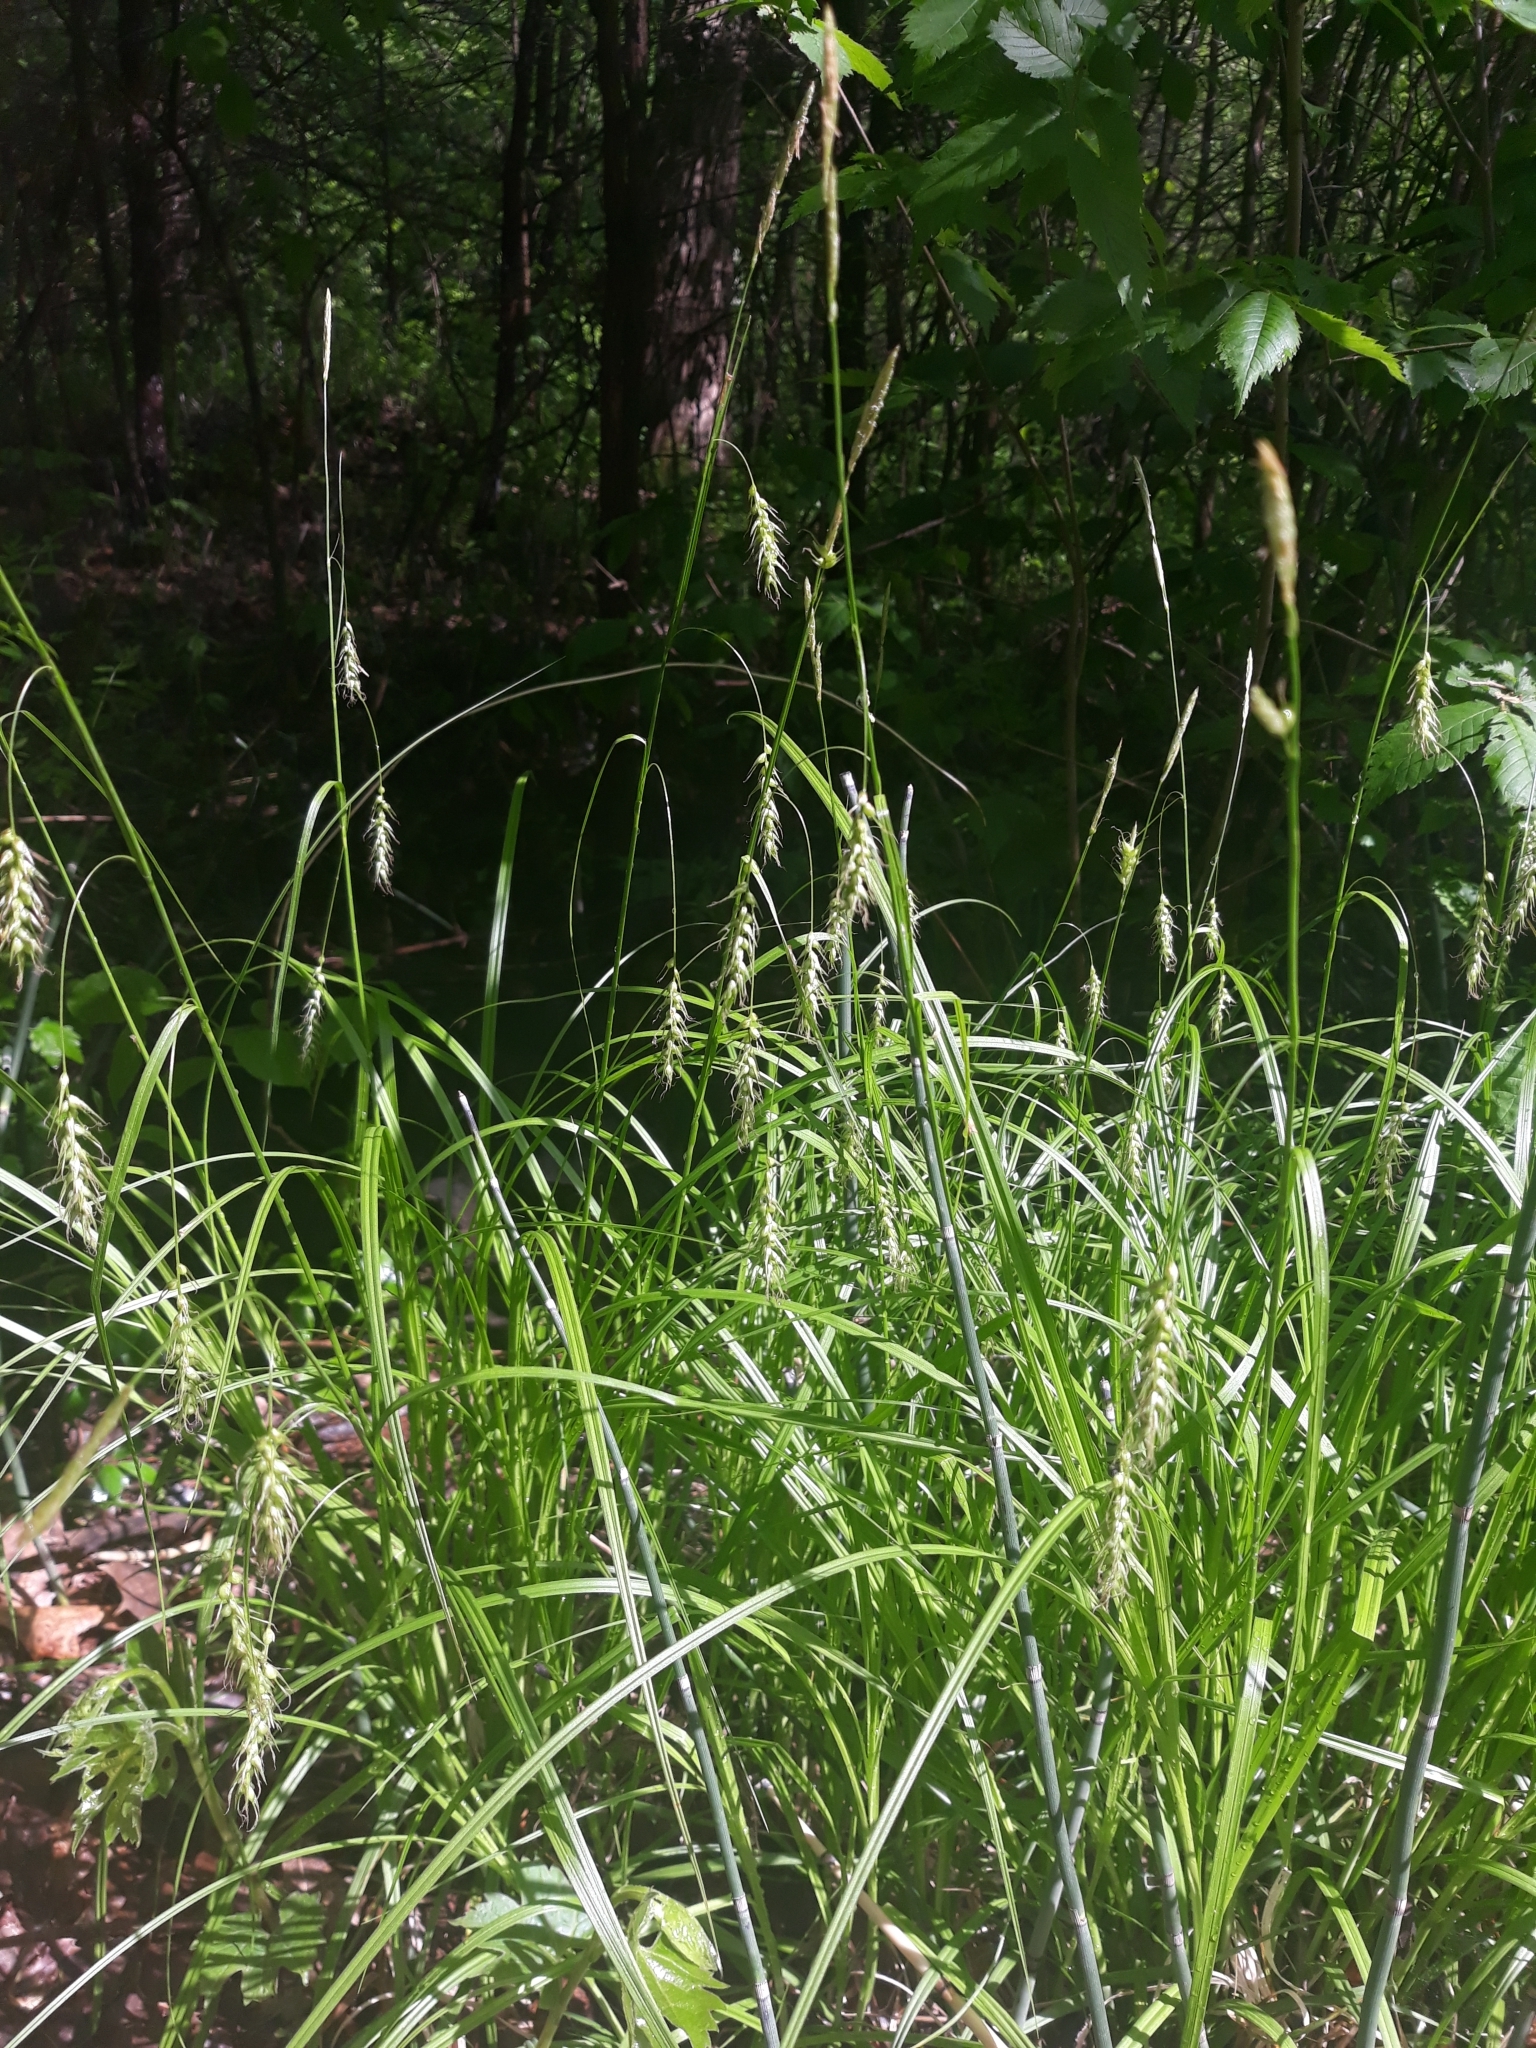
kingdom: Plantae
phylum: Tracheophyta
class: Liliopsida
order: Poales
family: Cyperaceae
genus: Carex
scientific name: Carex sprengelii
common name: Long-beaked sedge
